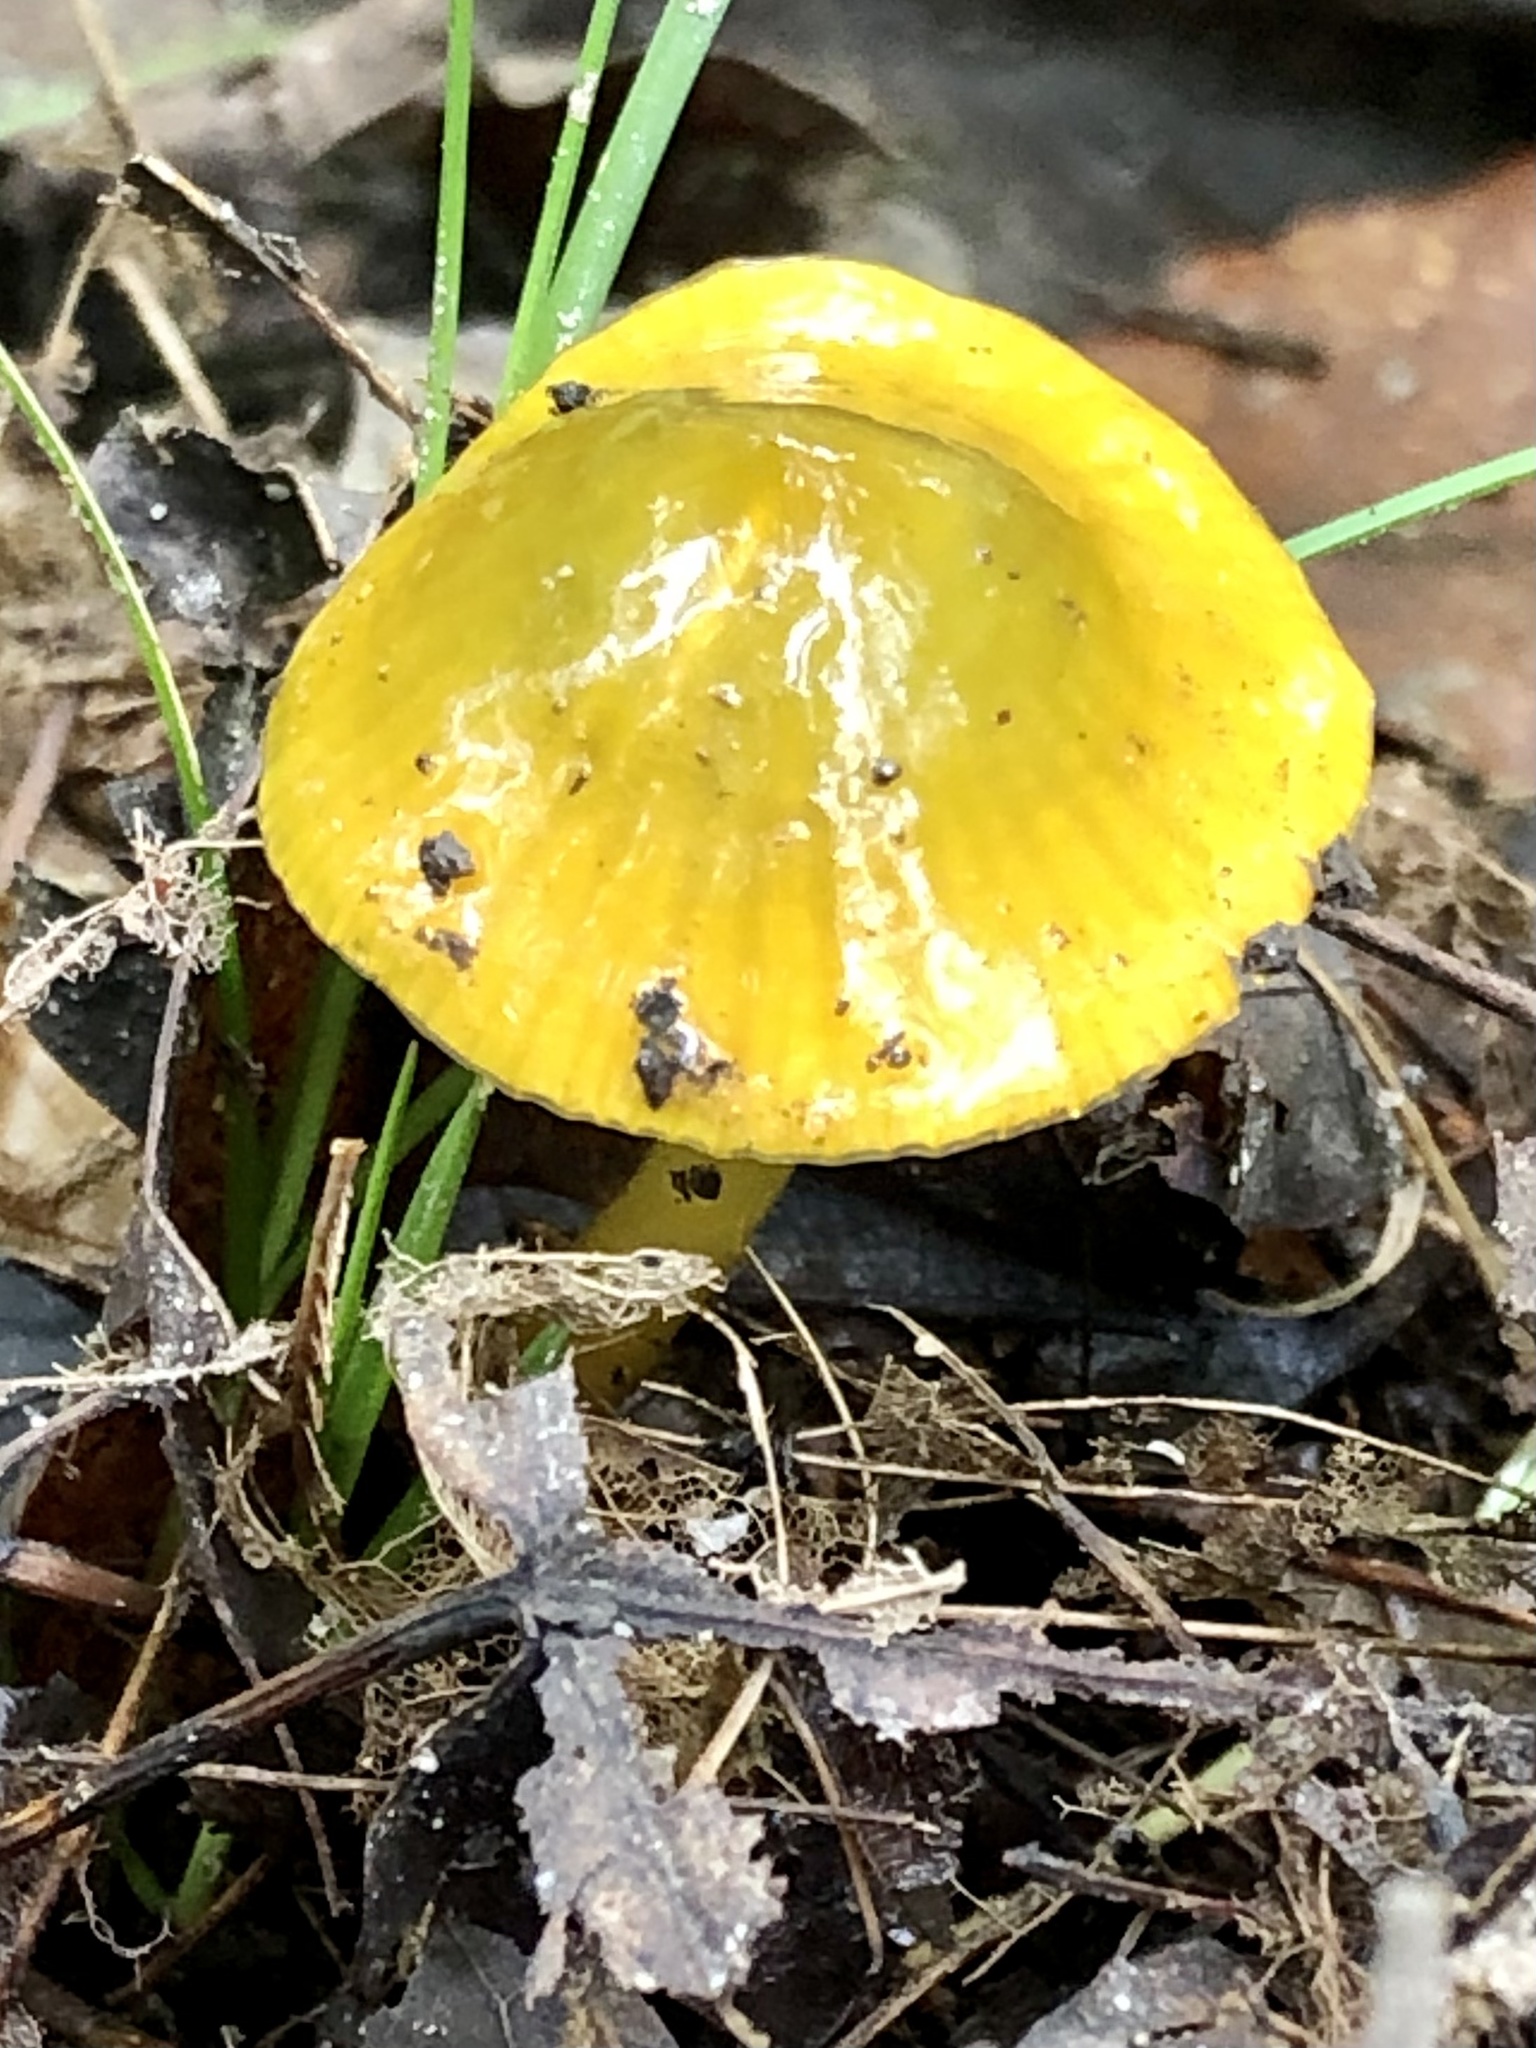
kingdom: Fungi
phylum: Basidiomycota
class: Agaricomycetes
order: Agaricales
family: Hygrophoraceae
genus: Gliophorus
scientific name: Gliophorus psittacinus
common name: Parrot wax-cap
